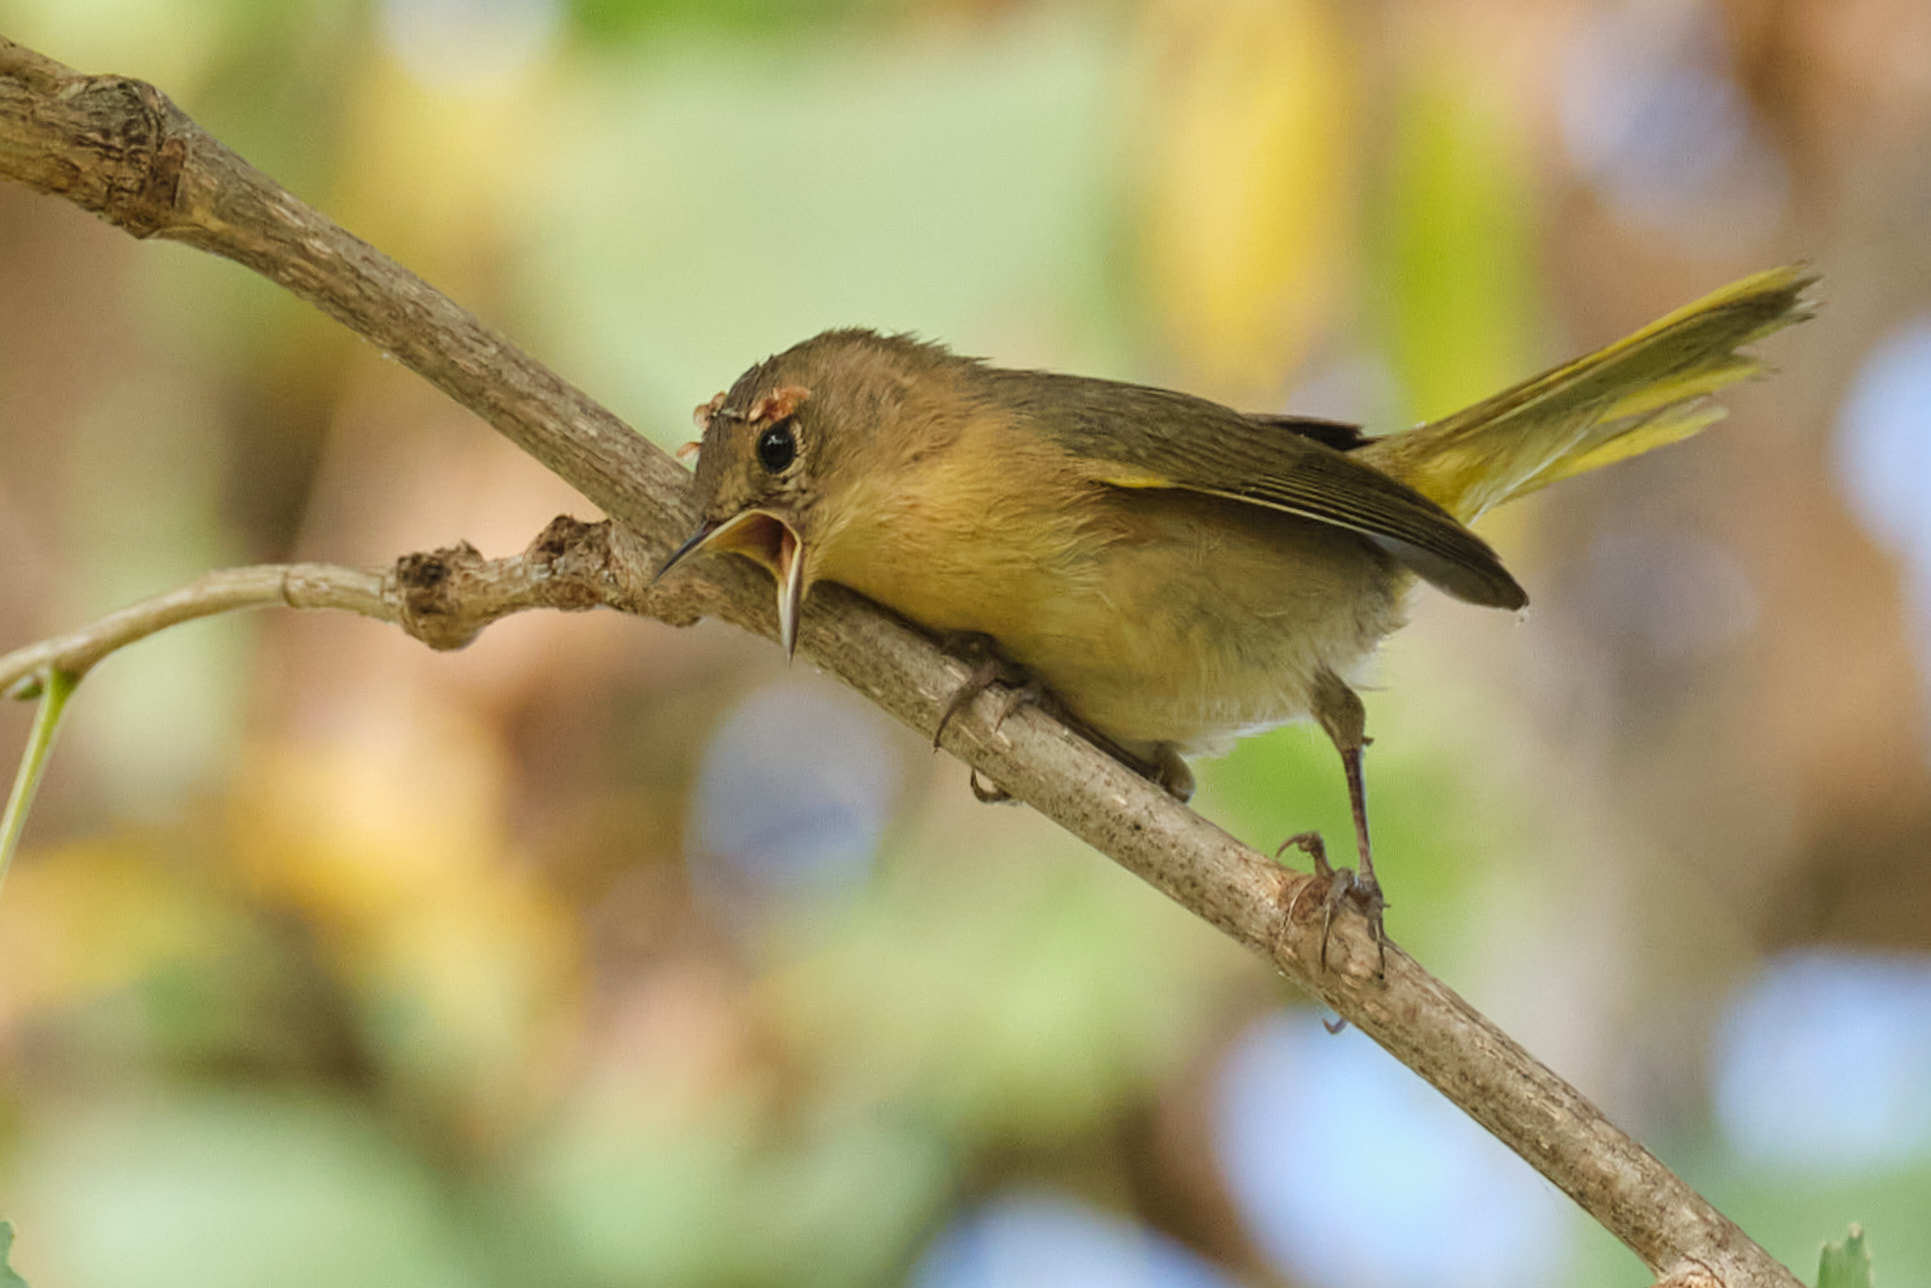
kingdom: Animalia
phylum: Chordata
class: Aves
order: Passeriformes
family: Parulidae
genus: Geothlypis
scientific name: Geothlypis trichas
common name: Common yellowthroat
